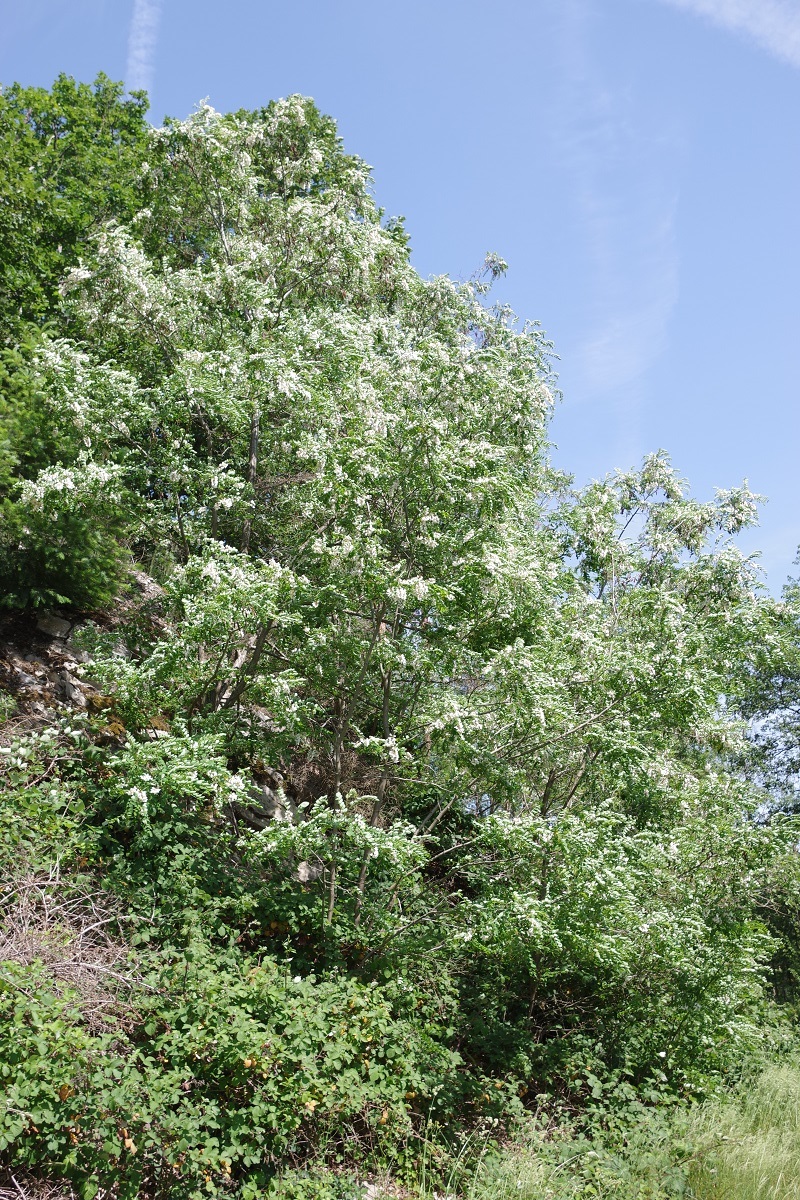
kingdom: Plantae
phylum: Tracheophyta
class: Magnoliopsida
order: Fabales
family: Fabaceae
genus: Robinia
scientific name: Robinia pseudoacacia
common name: Black locust
